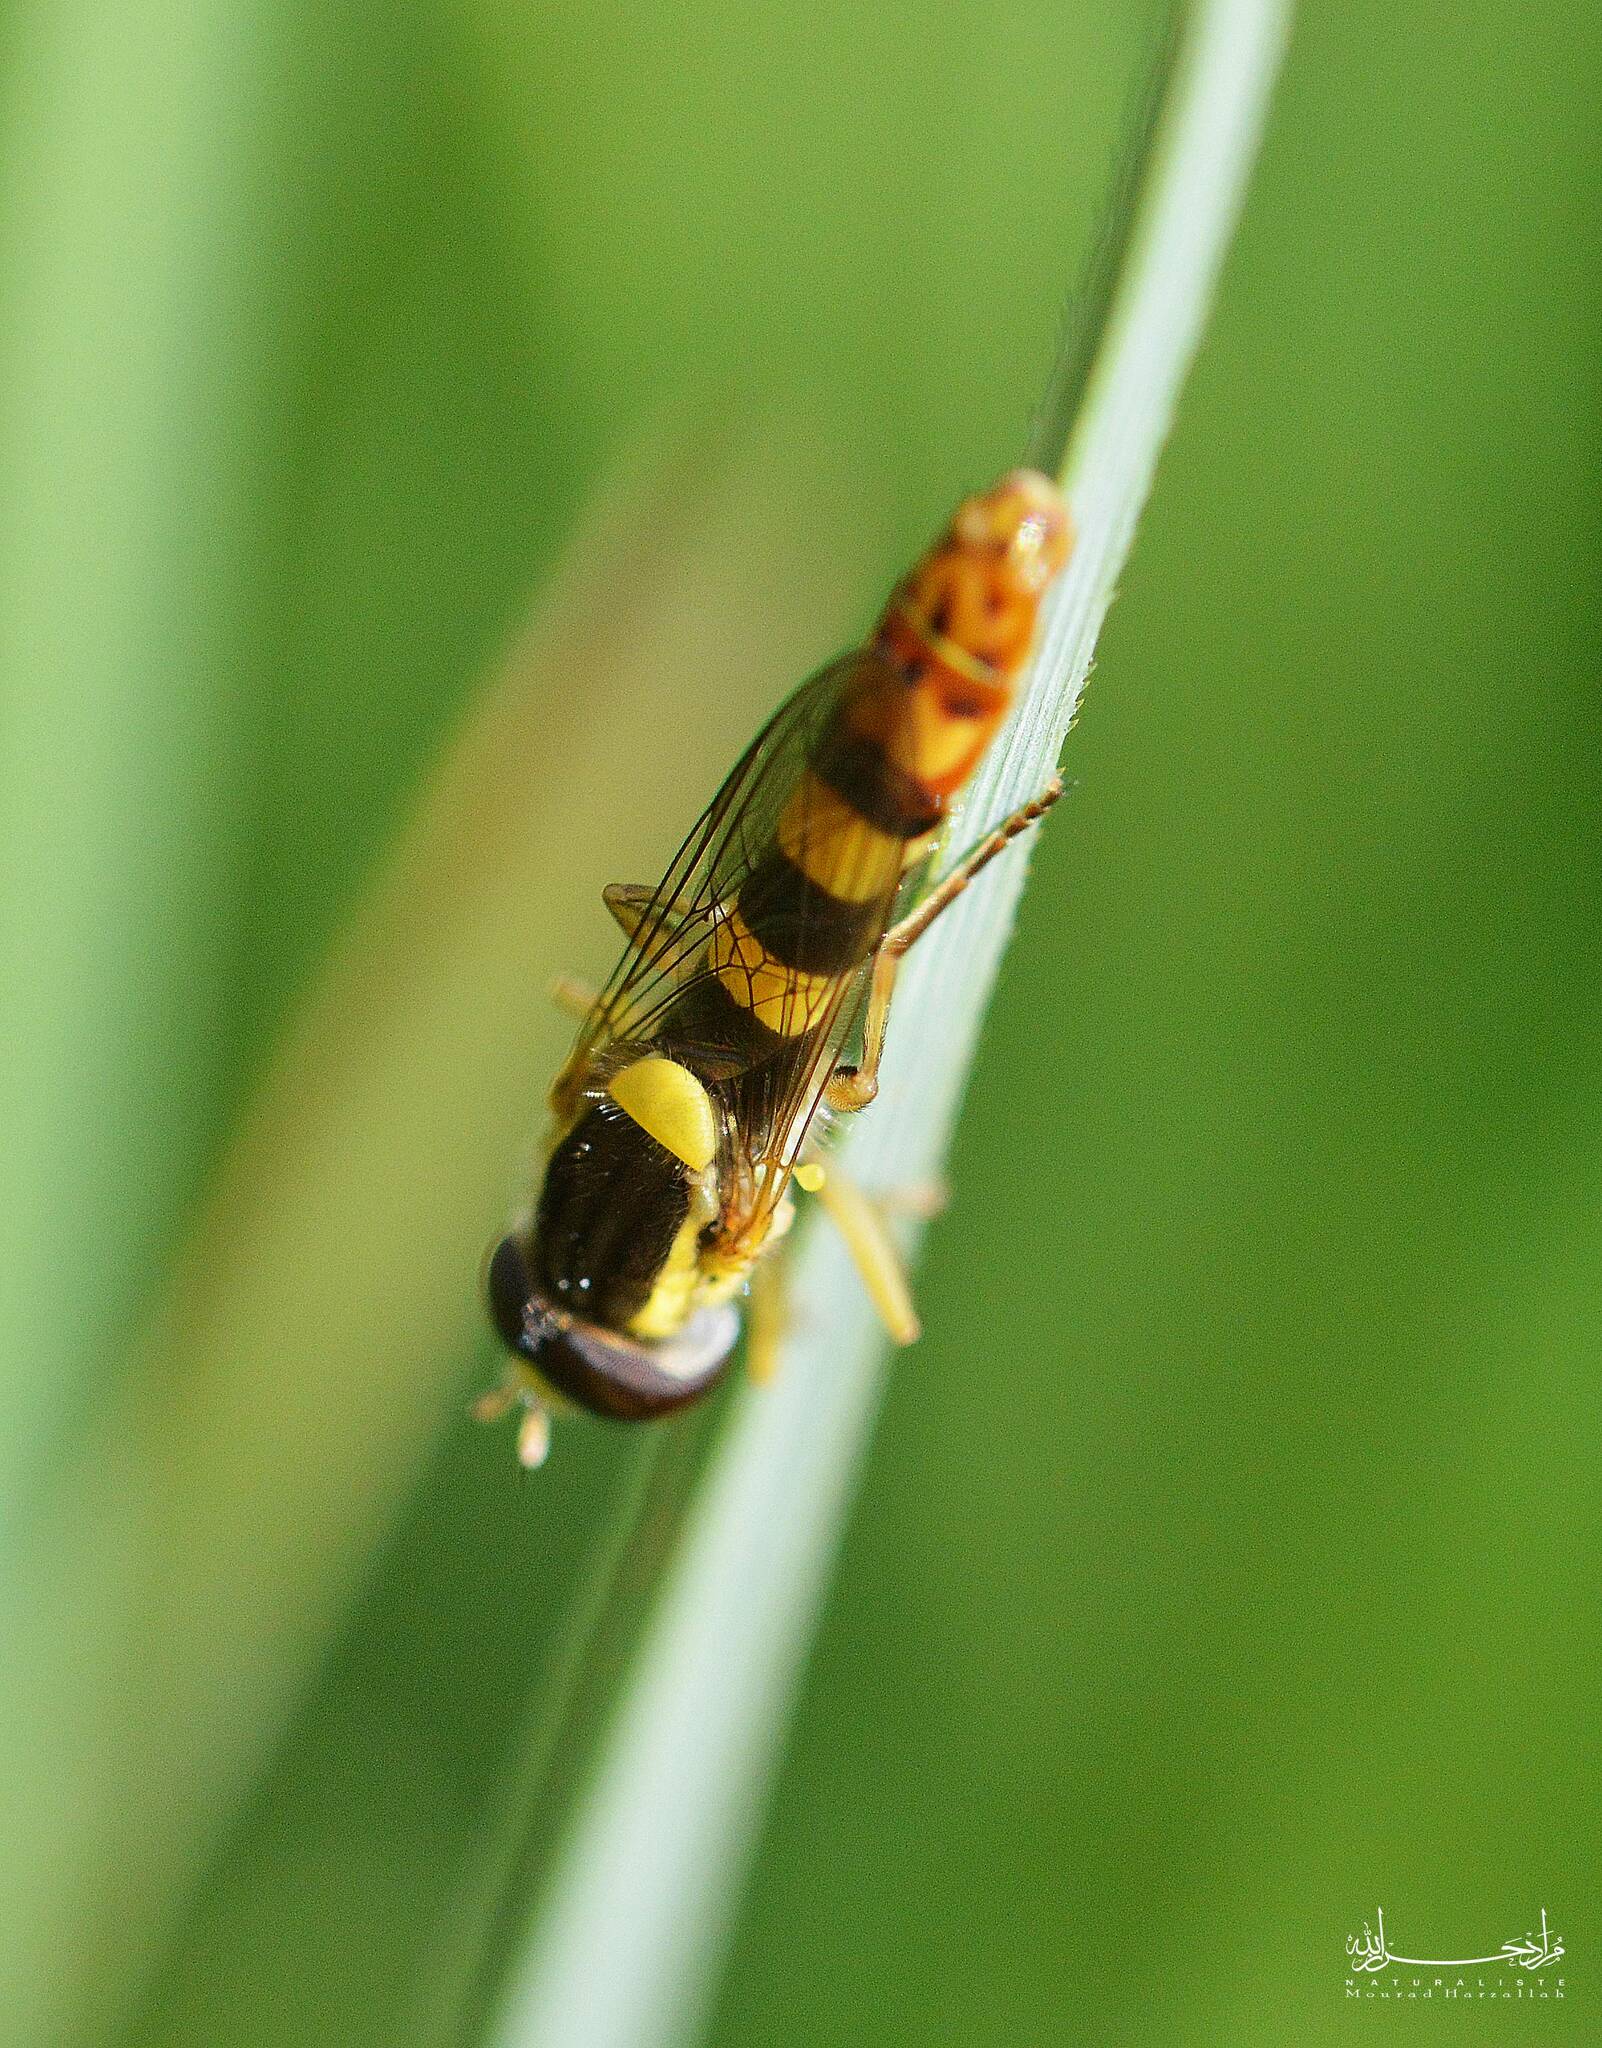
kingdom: Animalia
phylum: Arthropoda
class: Insecta
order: Diptera
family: Syrphidae
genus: Sphaerophoria
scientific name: Sphaerophoria scripta
